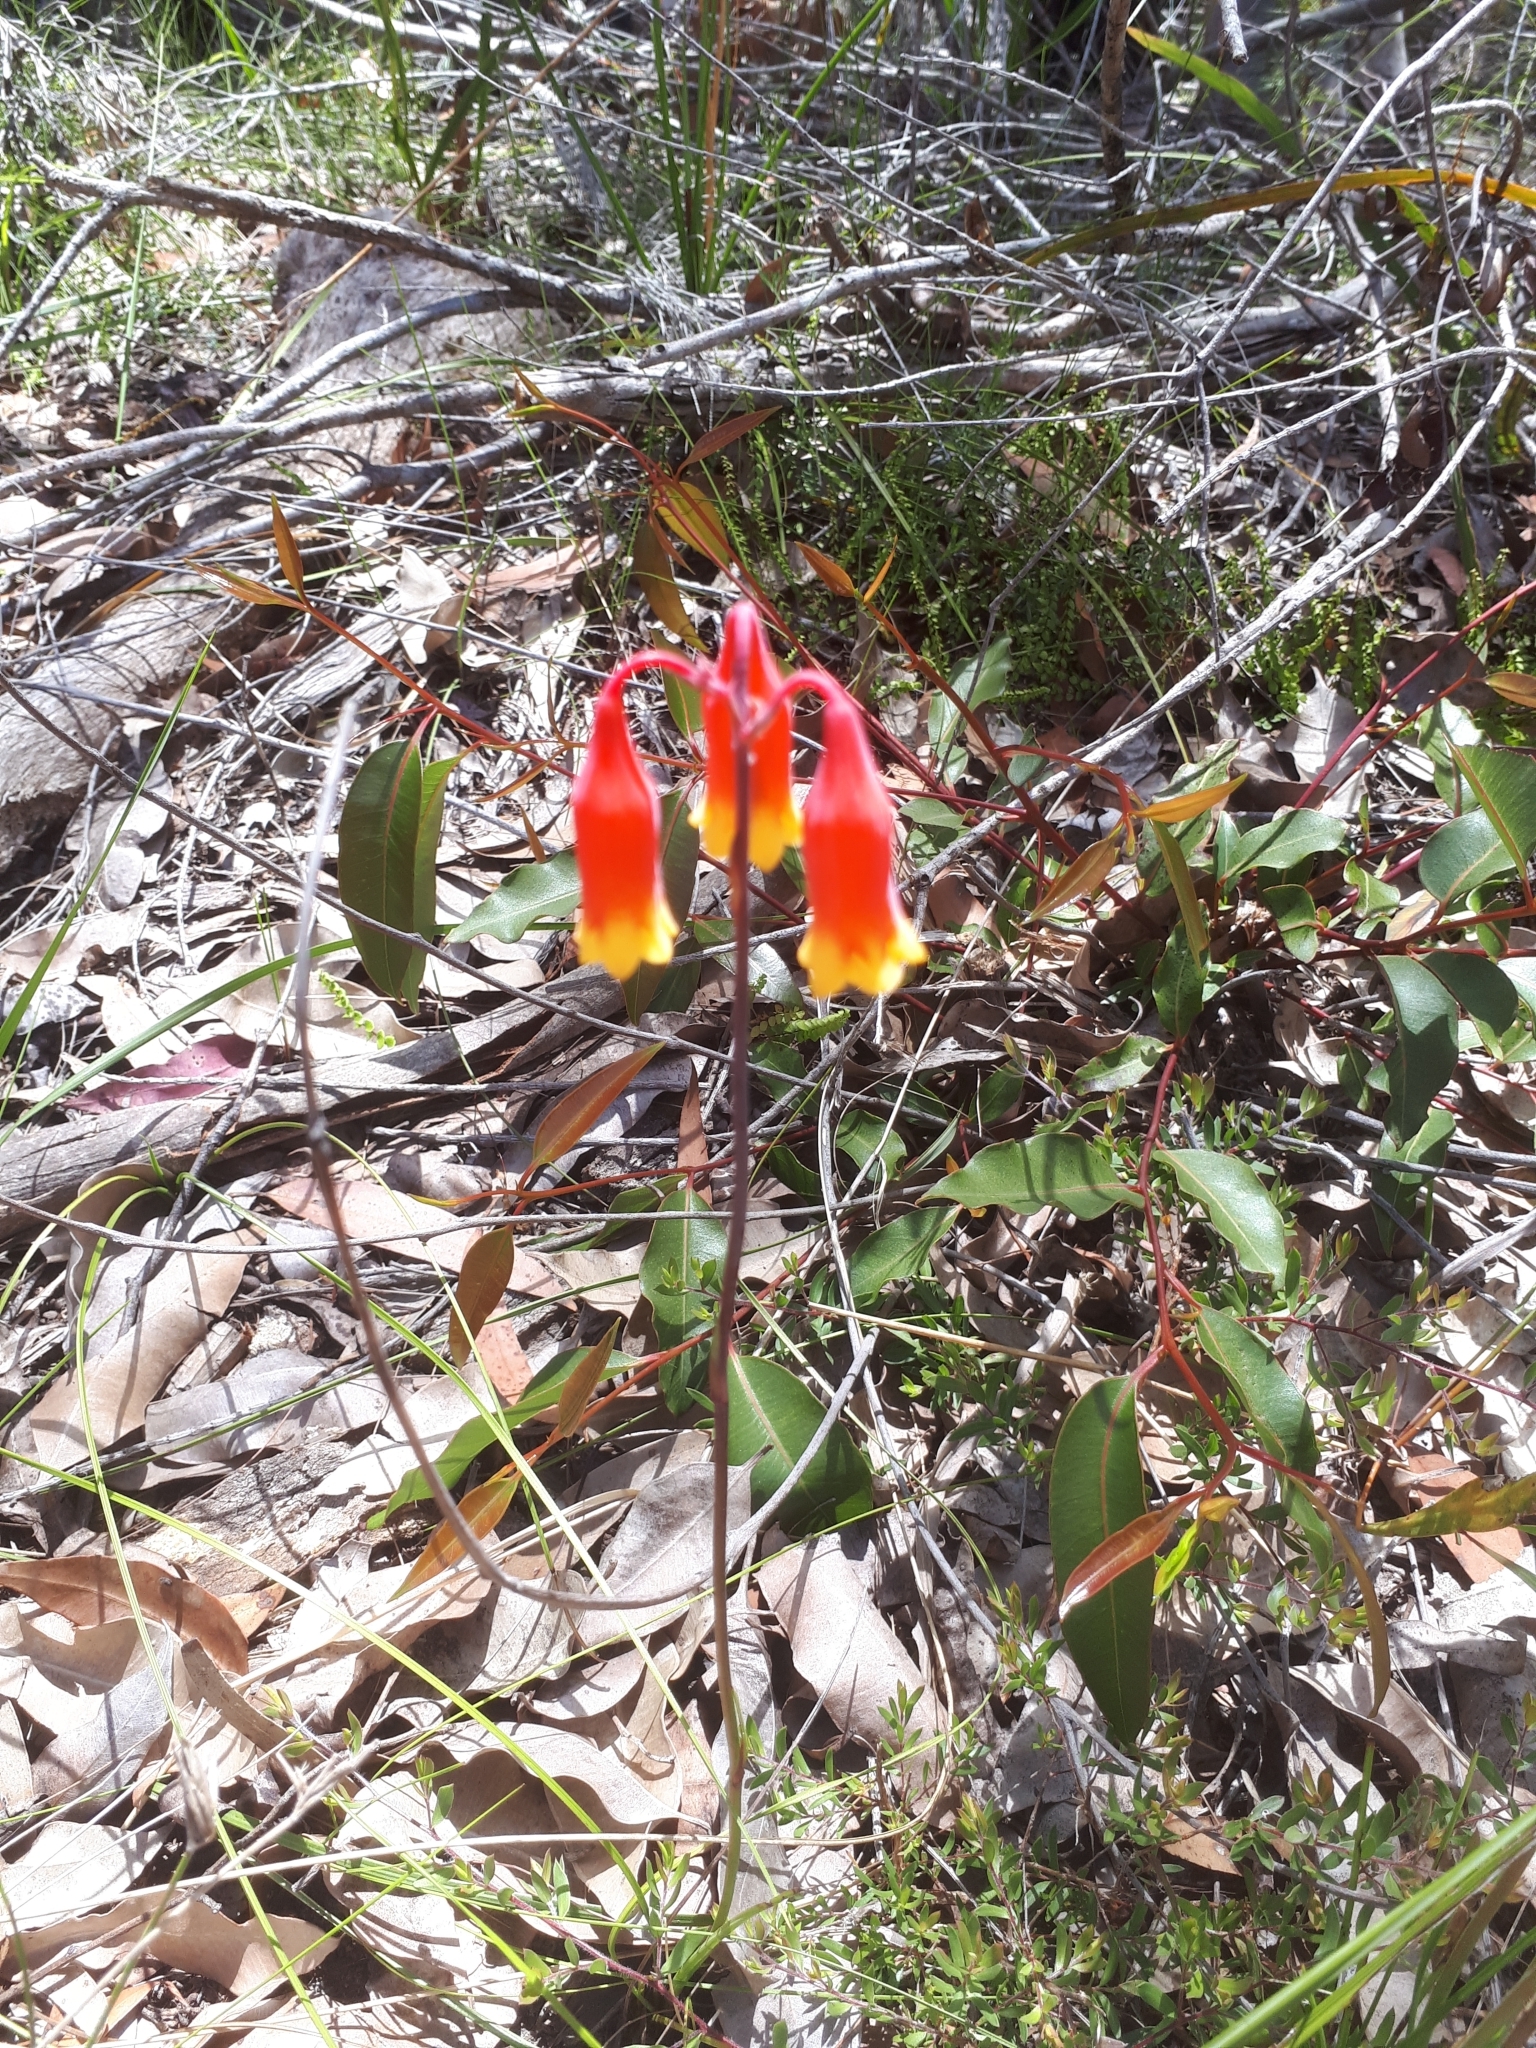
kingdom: Plantae
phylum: Tracheophyta
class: Liliopsida
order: Asparagales
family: Blandfordiaceae
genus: Blandfordia
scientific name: Blandfordia nobilis
